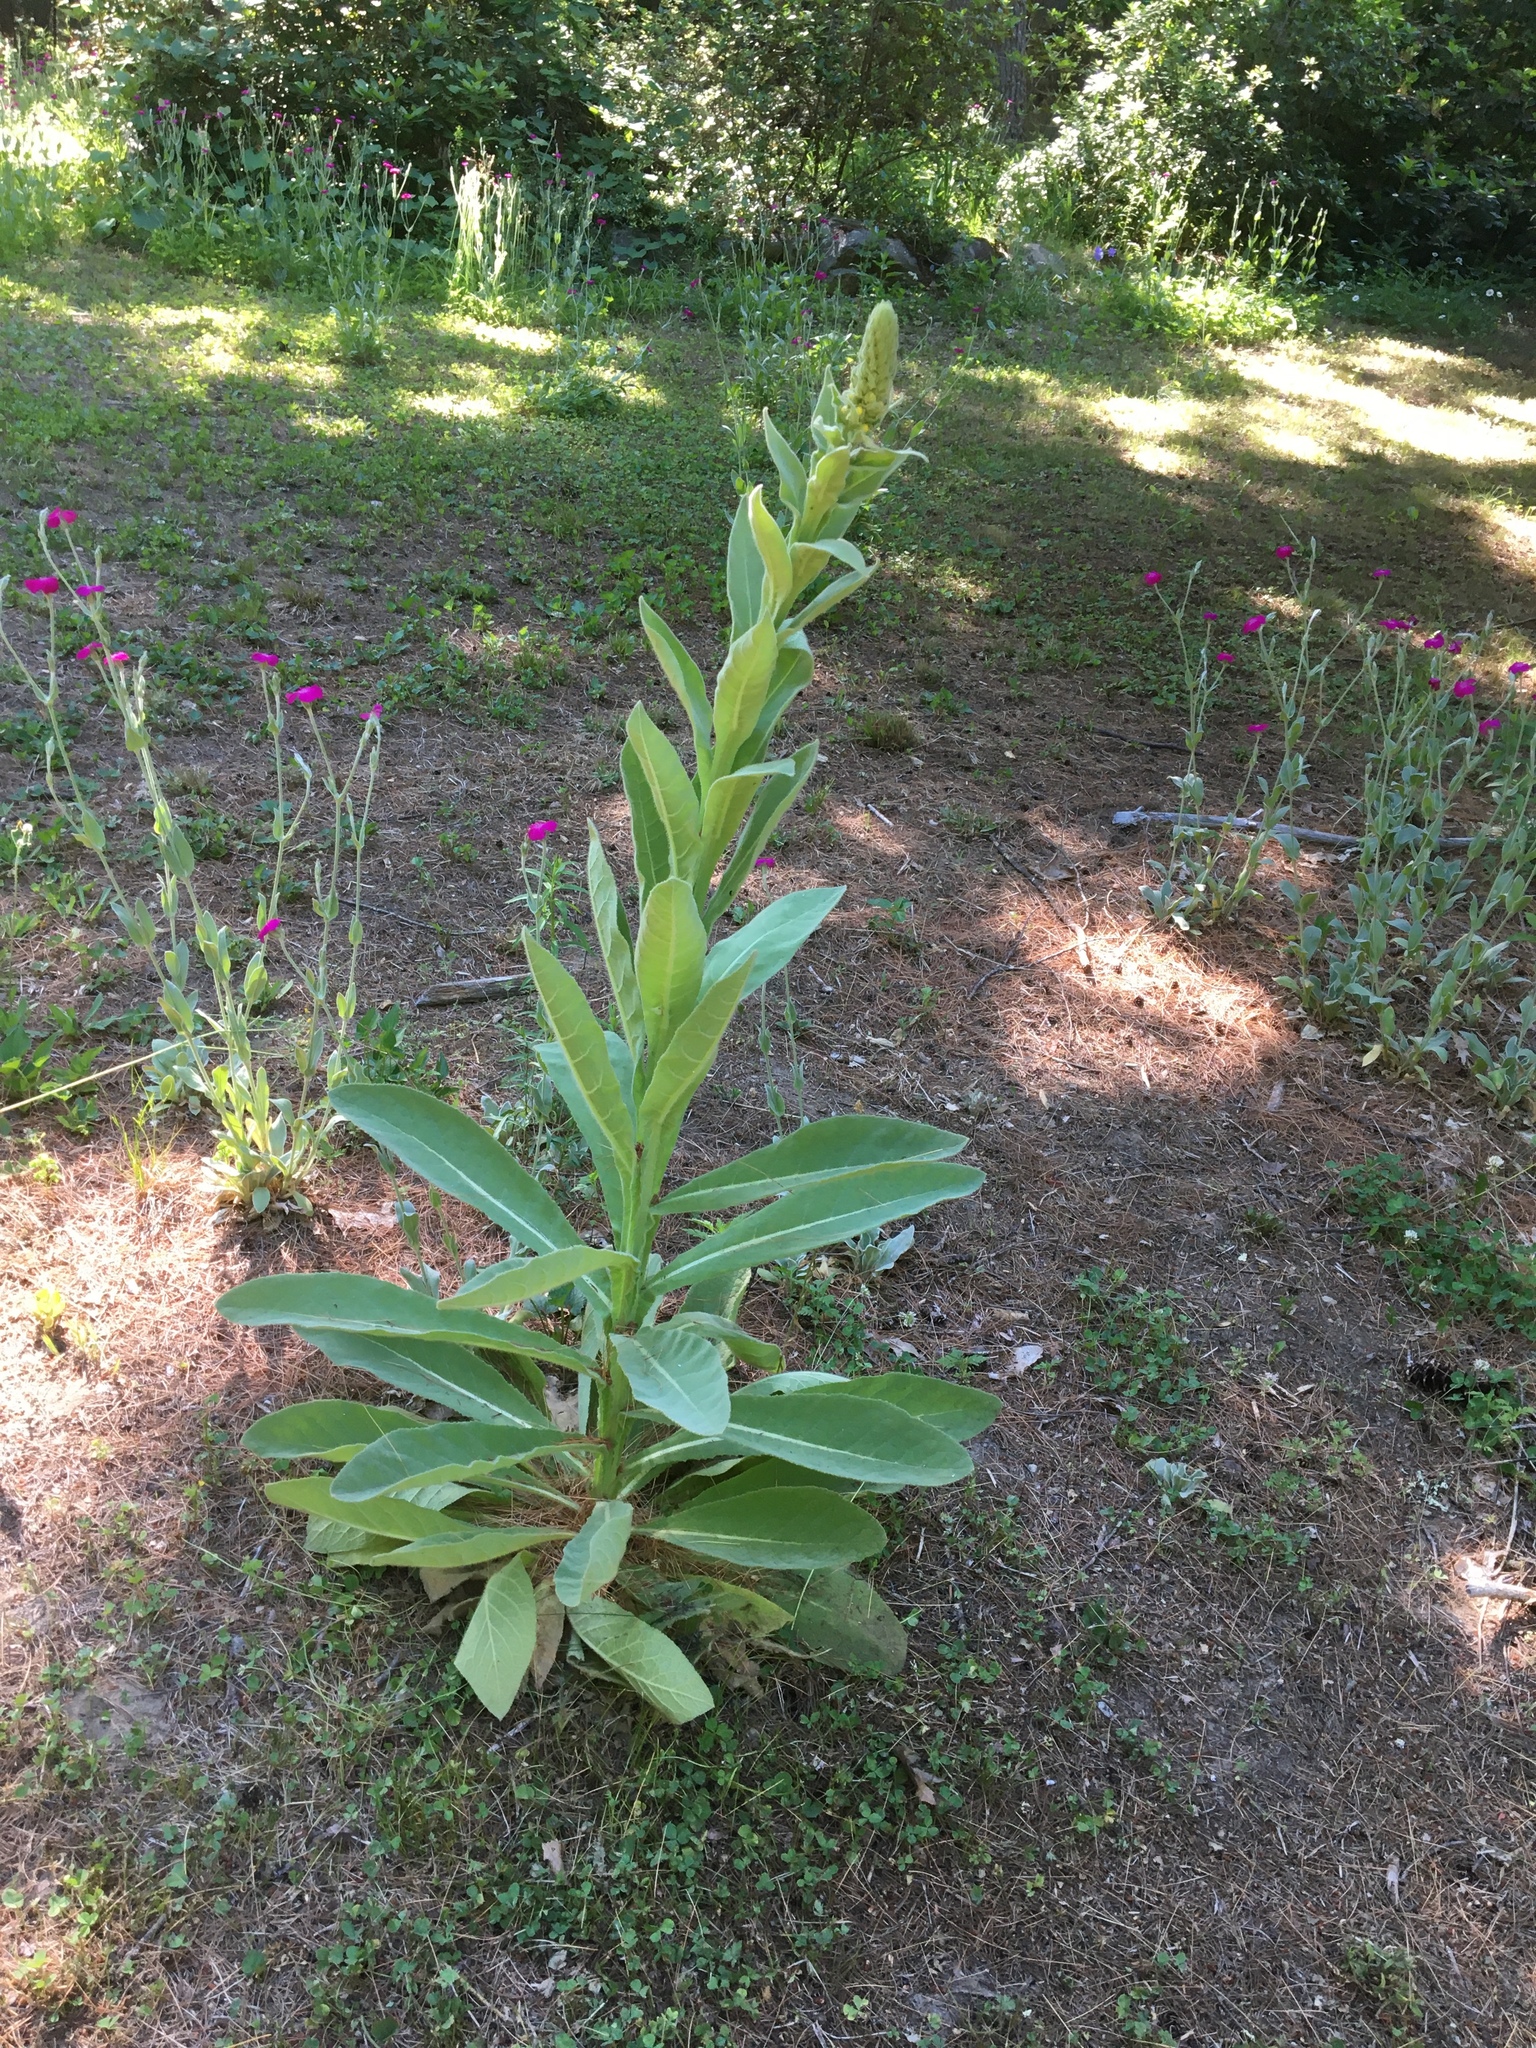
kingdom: Plantae
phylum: Tracheophyta
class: Magnoliopsida
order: Lamiales
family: Scrophulariaceae
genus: Verbascum
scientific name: Verbascum thapsus
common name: Common mullein
